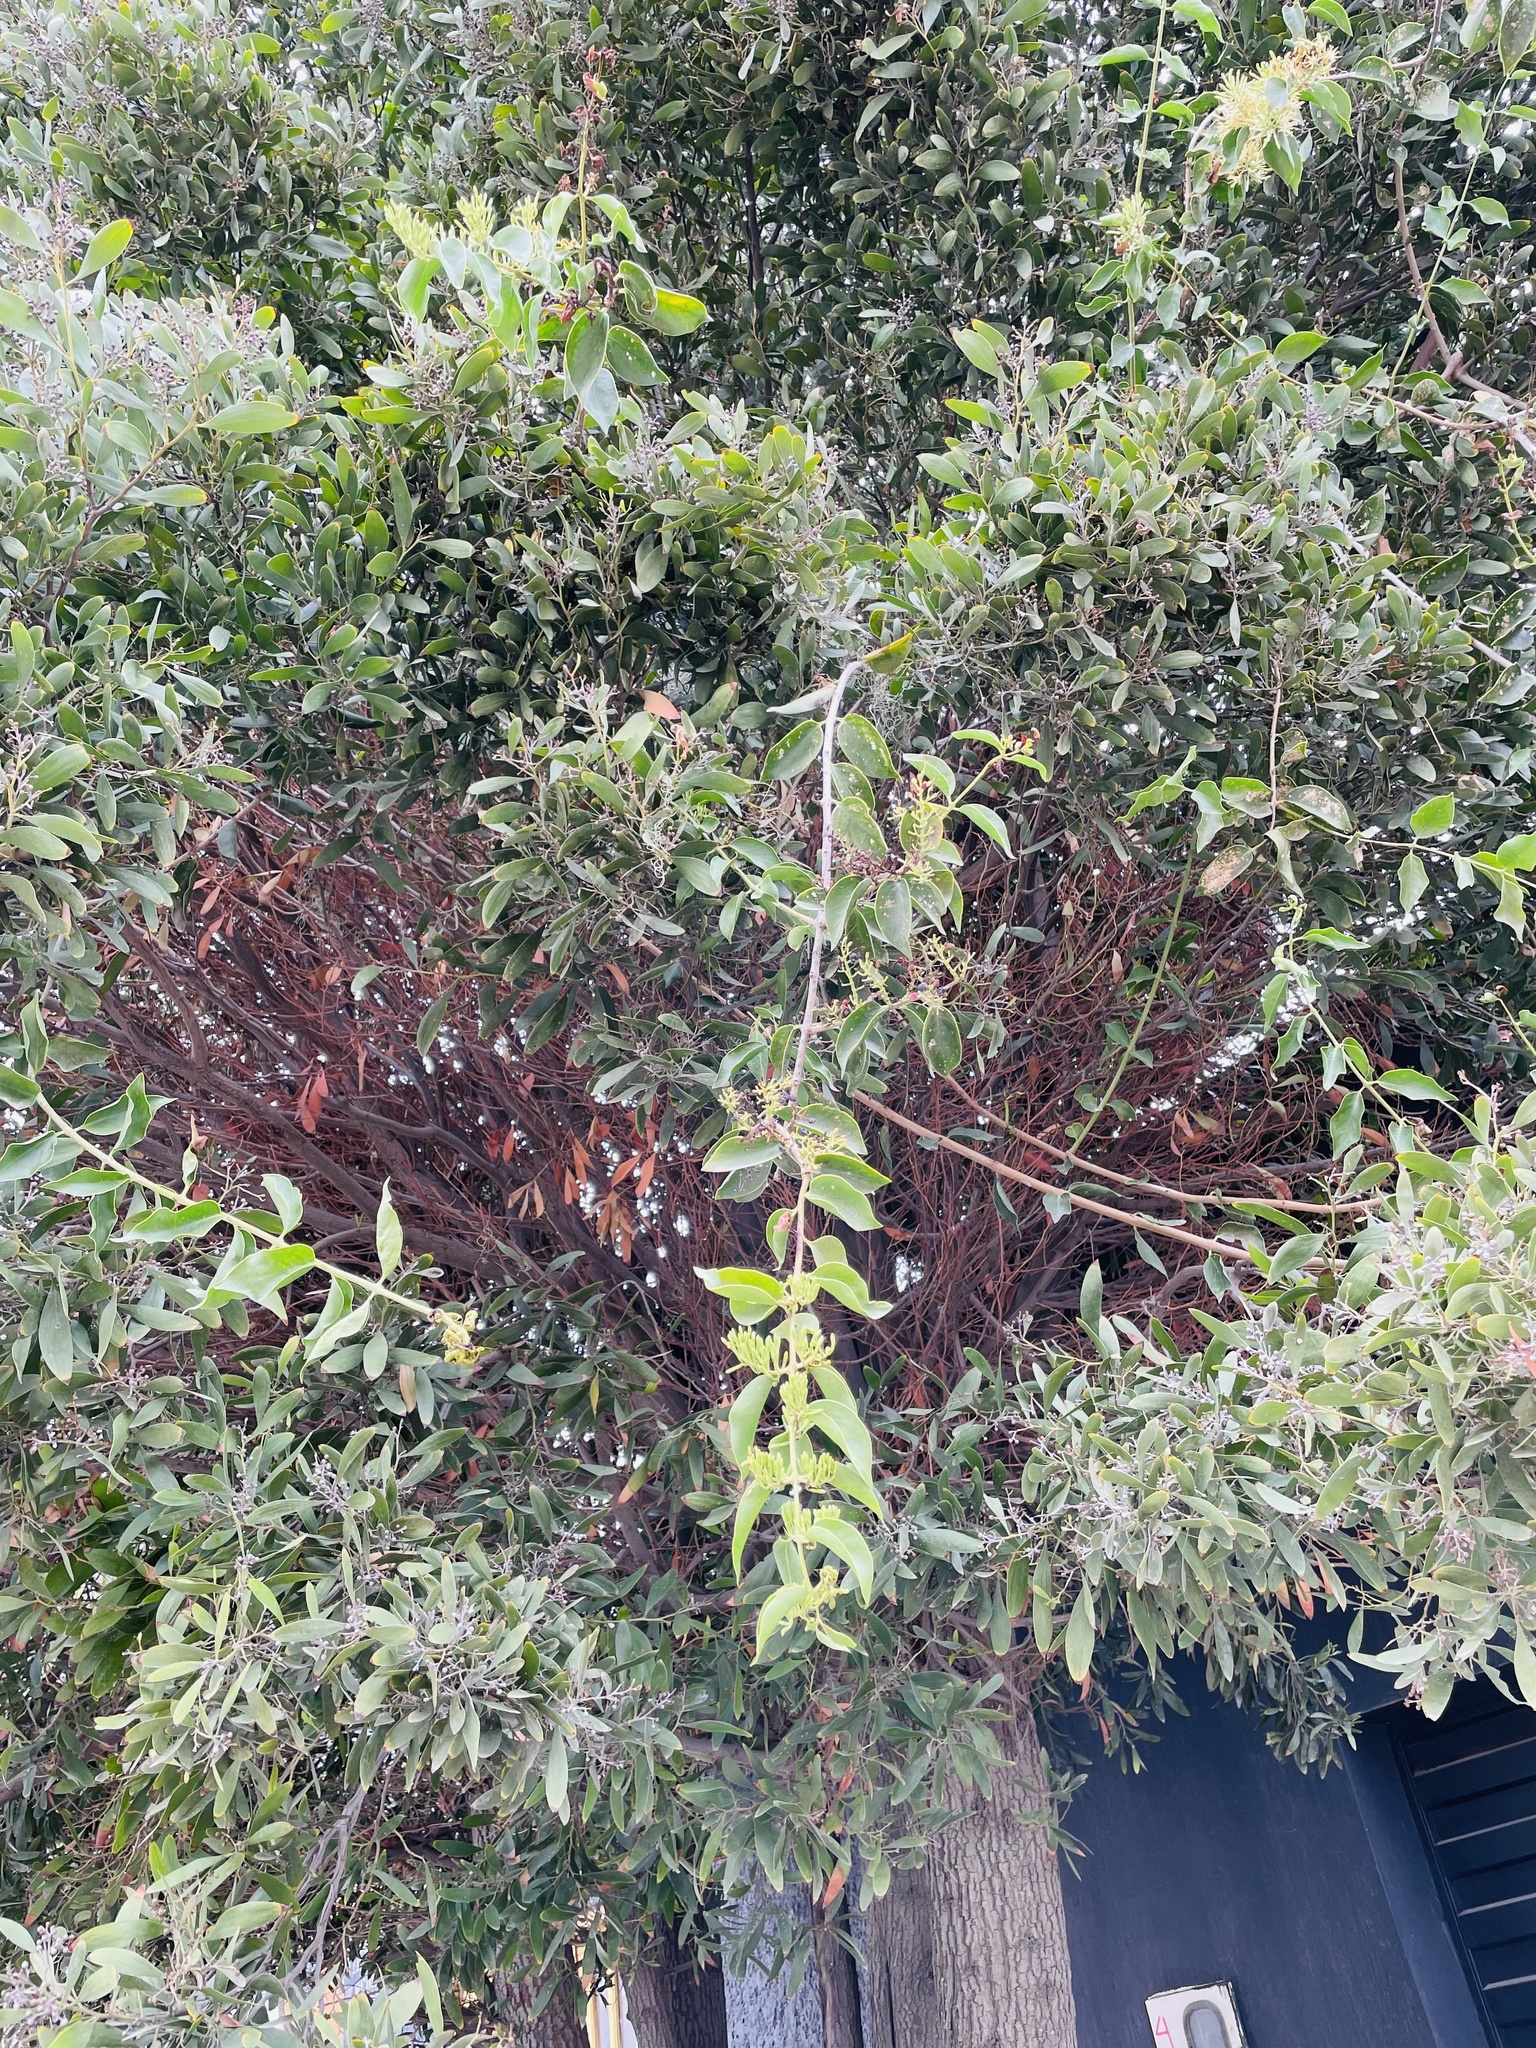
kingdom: Plantae
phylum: Tracheophyta
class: Magnoliopsida
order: Santalales
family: Loranthaceae
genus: Tripodanthus
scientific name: Tripodanthus acutifolius
